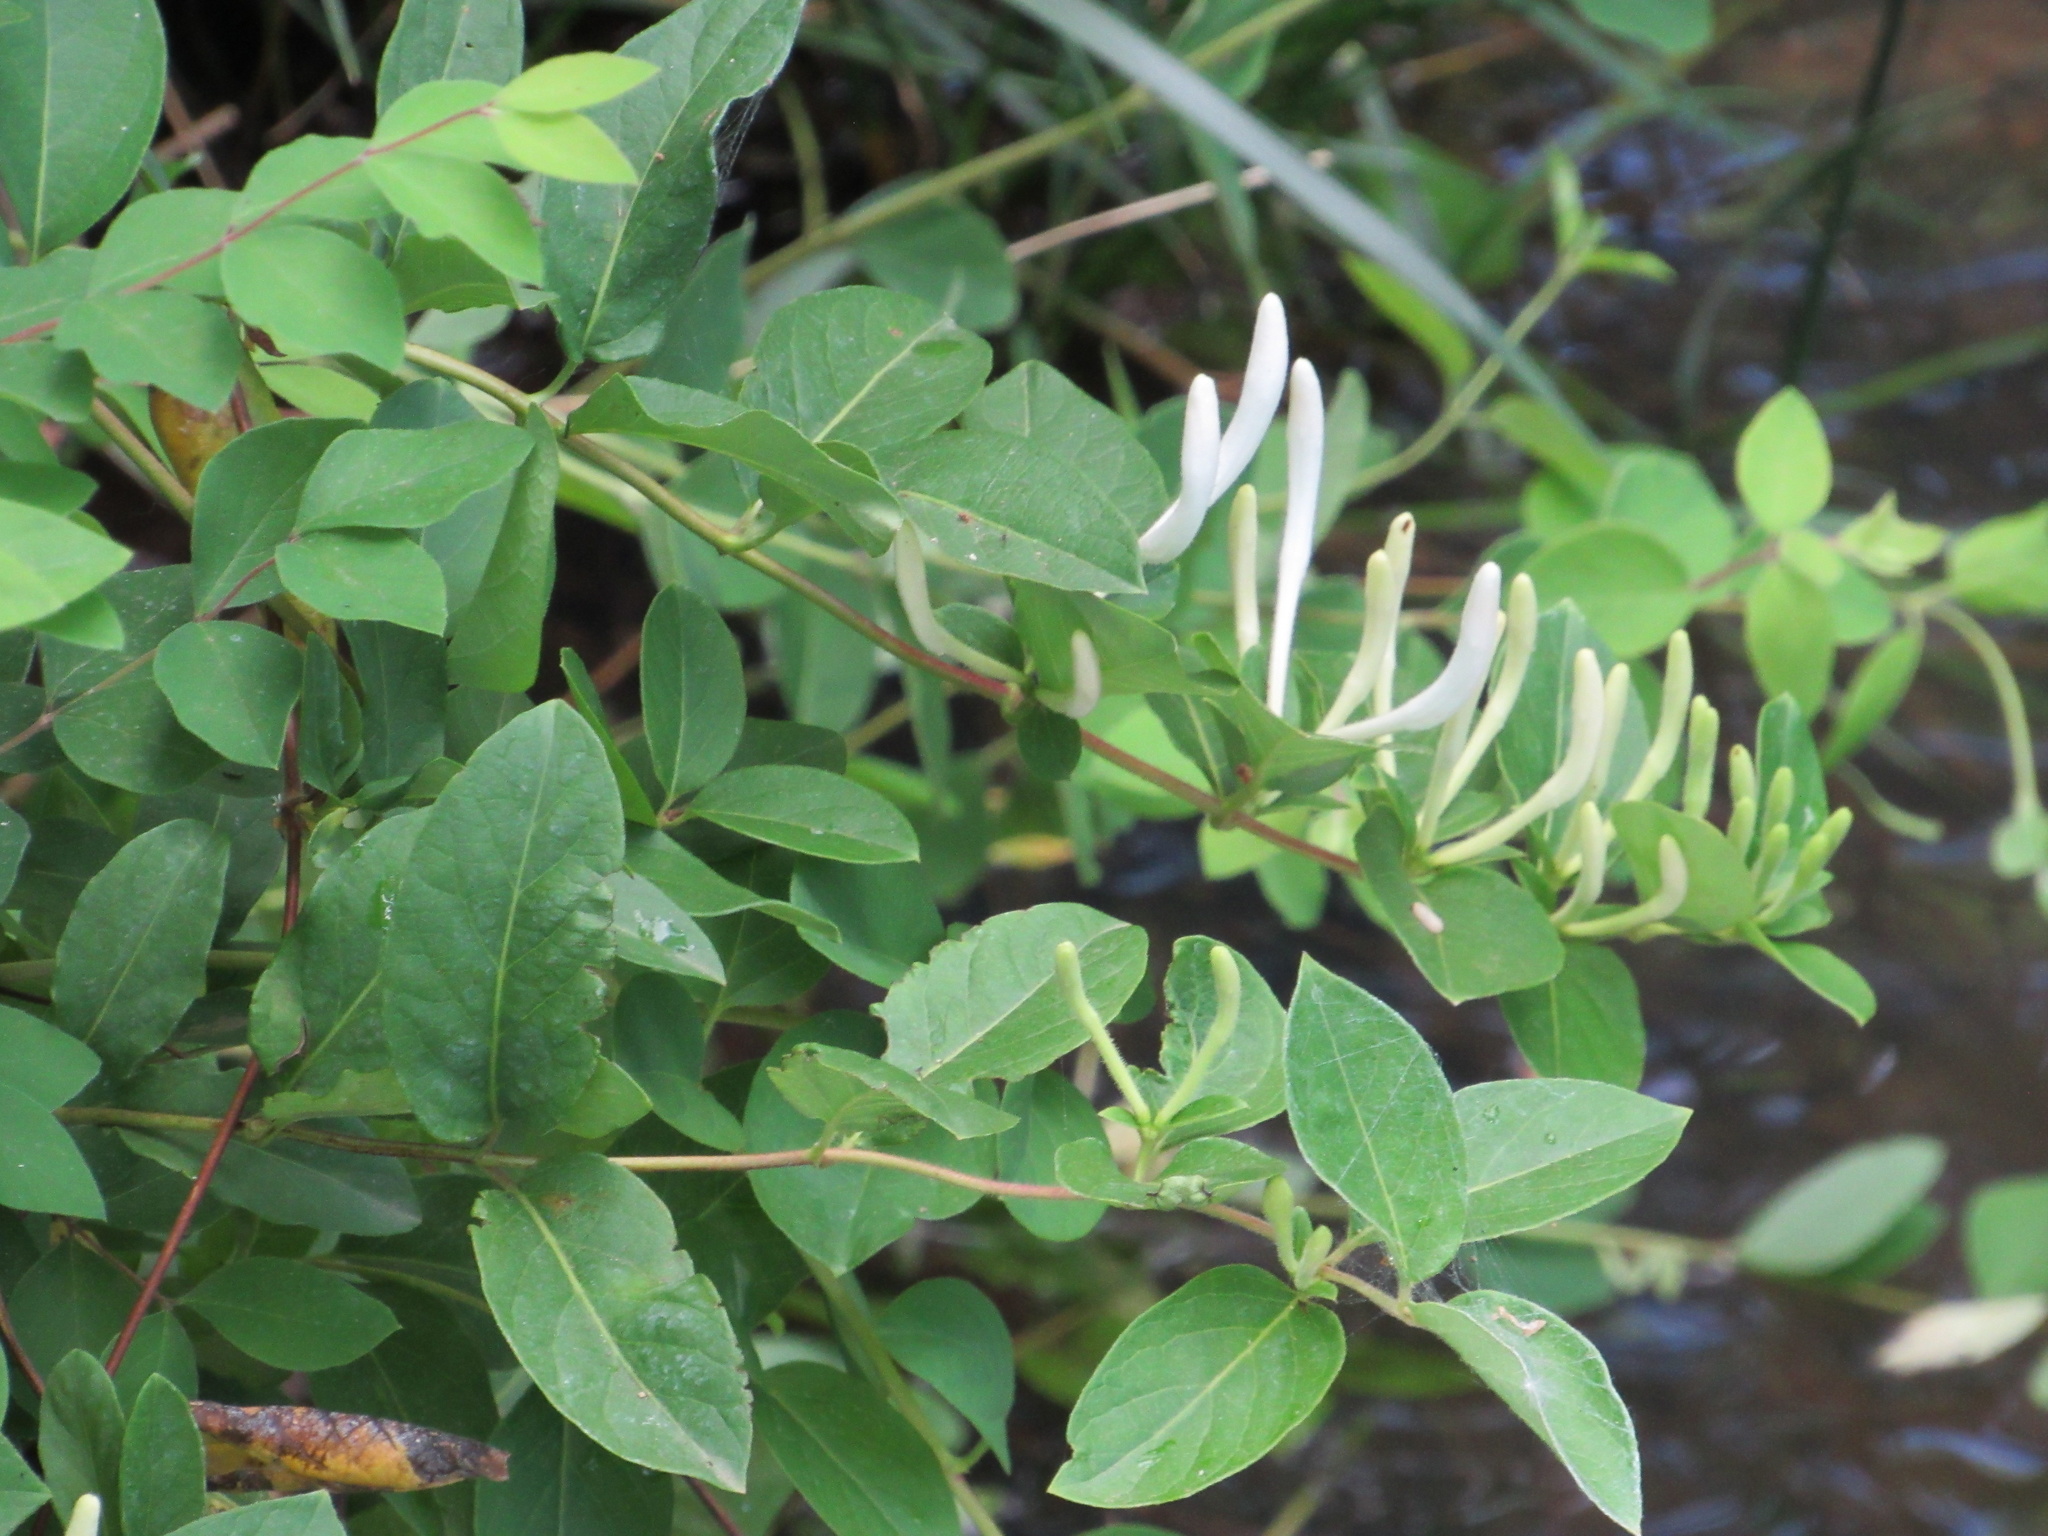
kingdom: Plantae
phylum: Tracheophyta
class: Magnoliopsida
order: Dipsacales
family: Caprifoliaceae
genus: Lonicera
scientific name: Lonicera japonica
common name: Japanese honeysuckle
